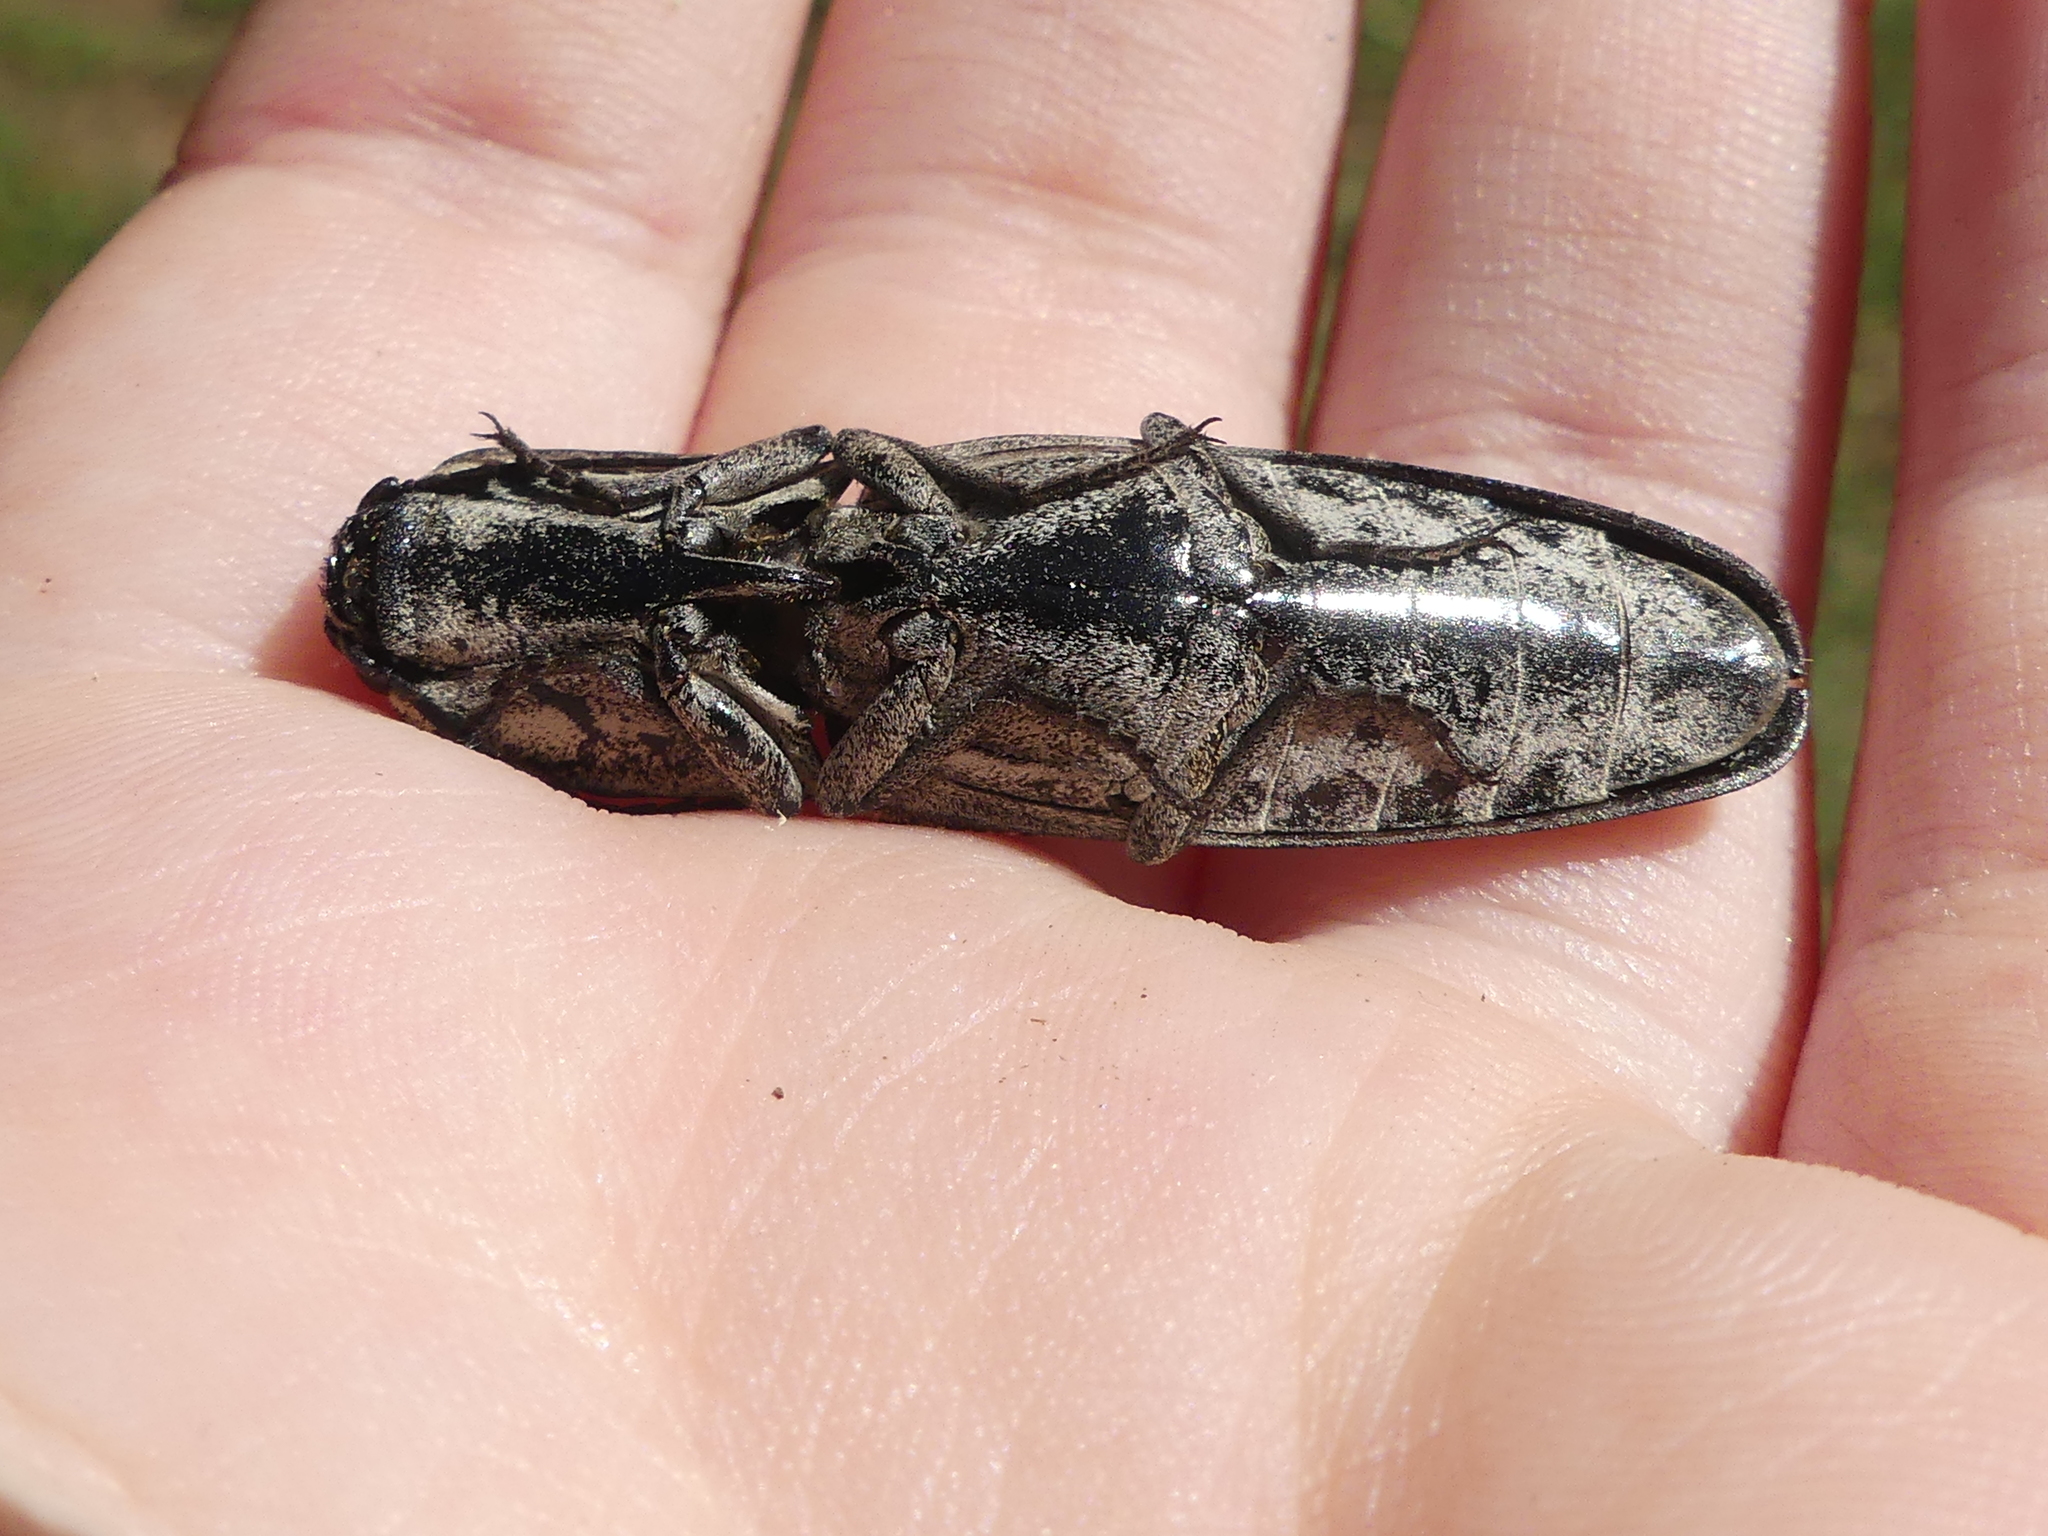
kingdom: Animalia
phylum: Arthropoda
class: Insecta
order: Coleoptera
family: Elateridae
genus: Alaus
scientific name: Alaus myops
